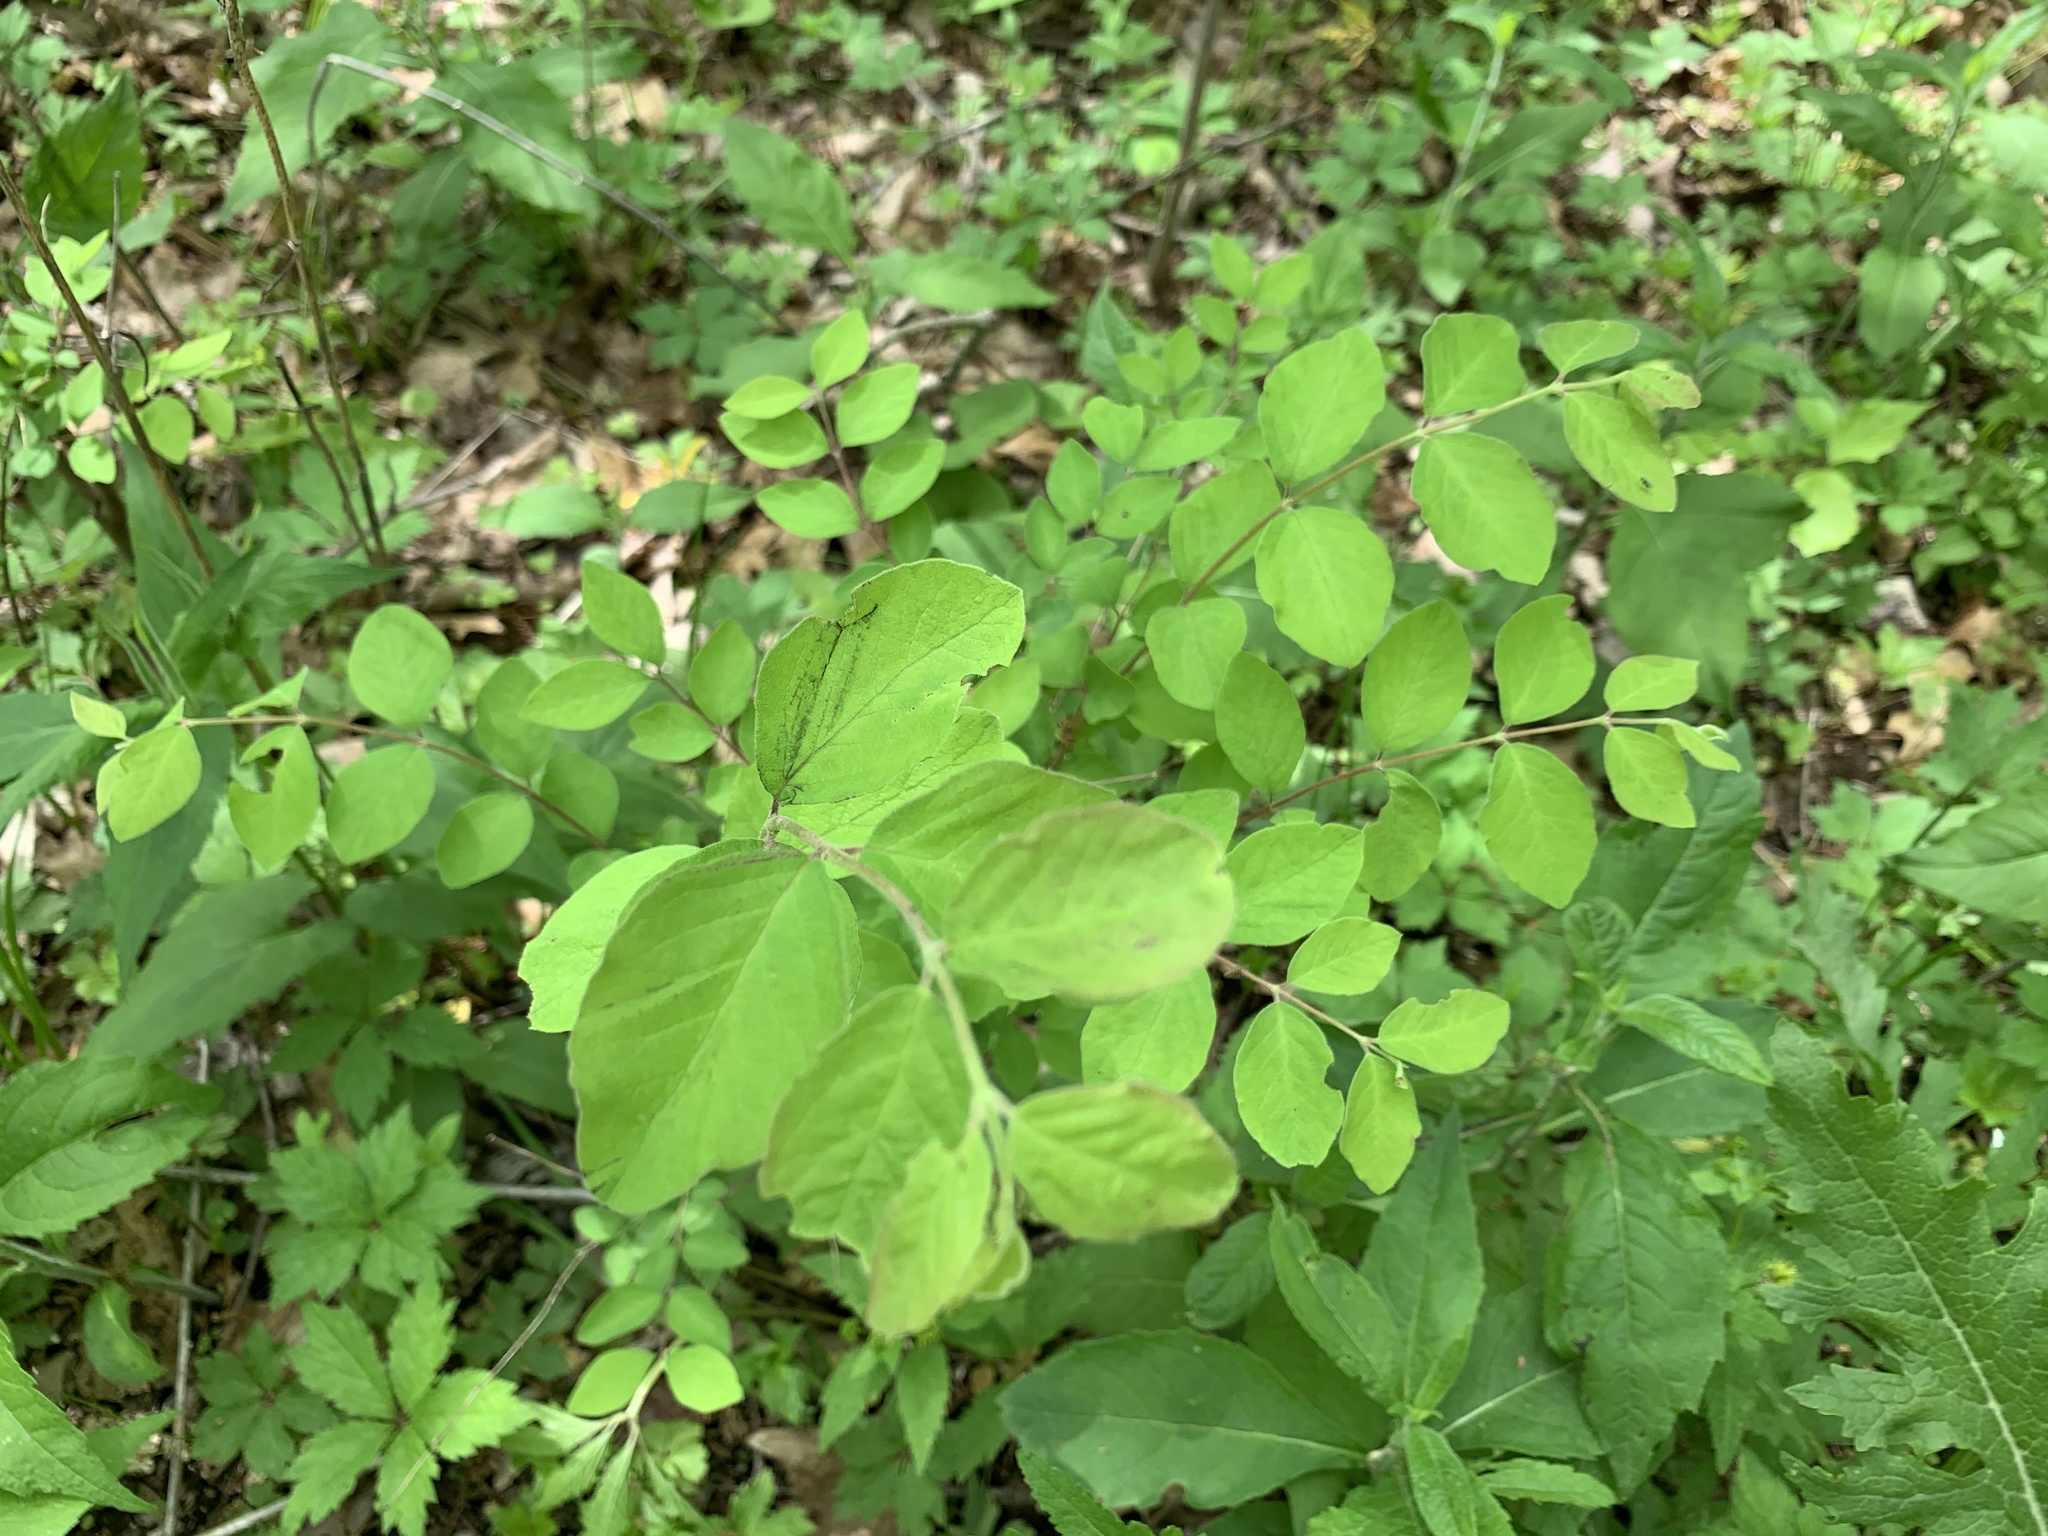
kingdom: Plantae
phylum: Tracheophyta
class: Magnoliopsida
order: Dipsacales
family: Caprifoliaceae
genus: Symphoricarpos
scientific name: Symphoricarpos orbiculatus
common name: Coralberry
